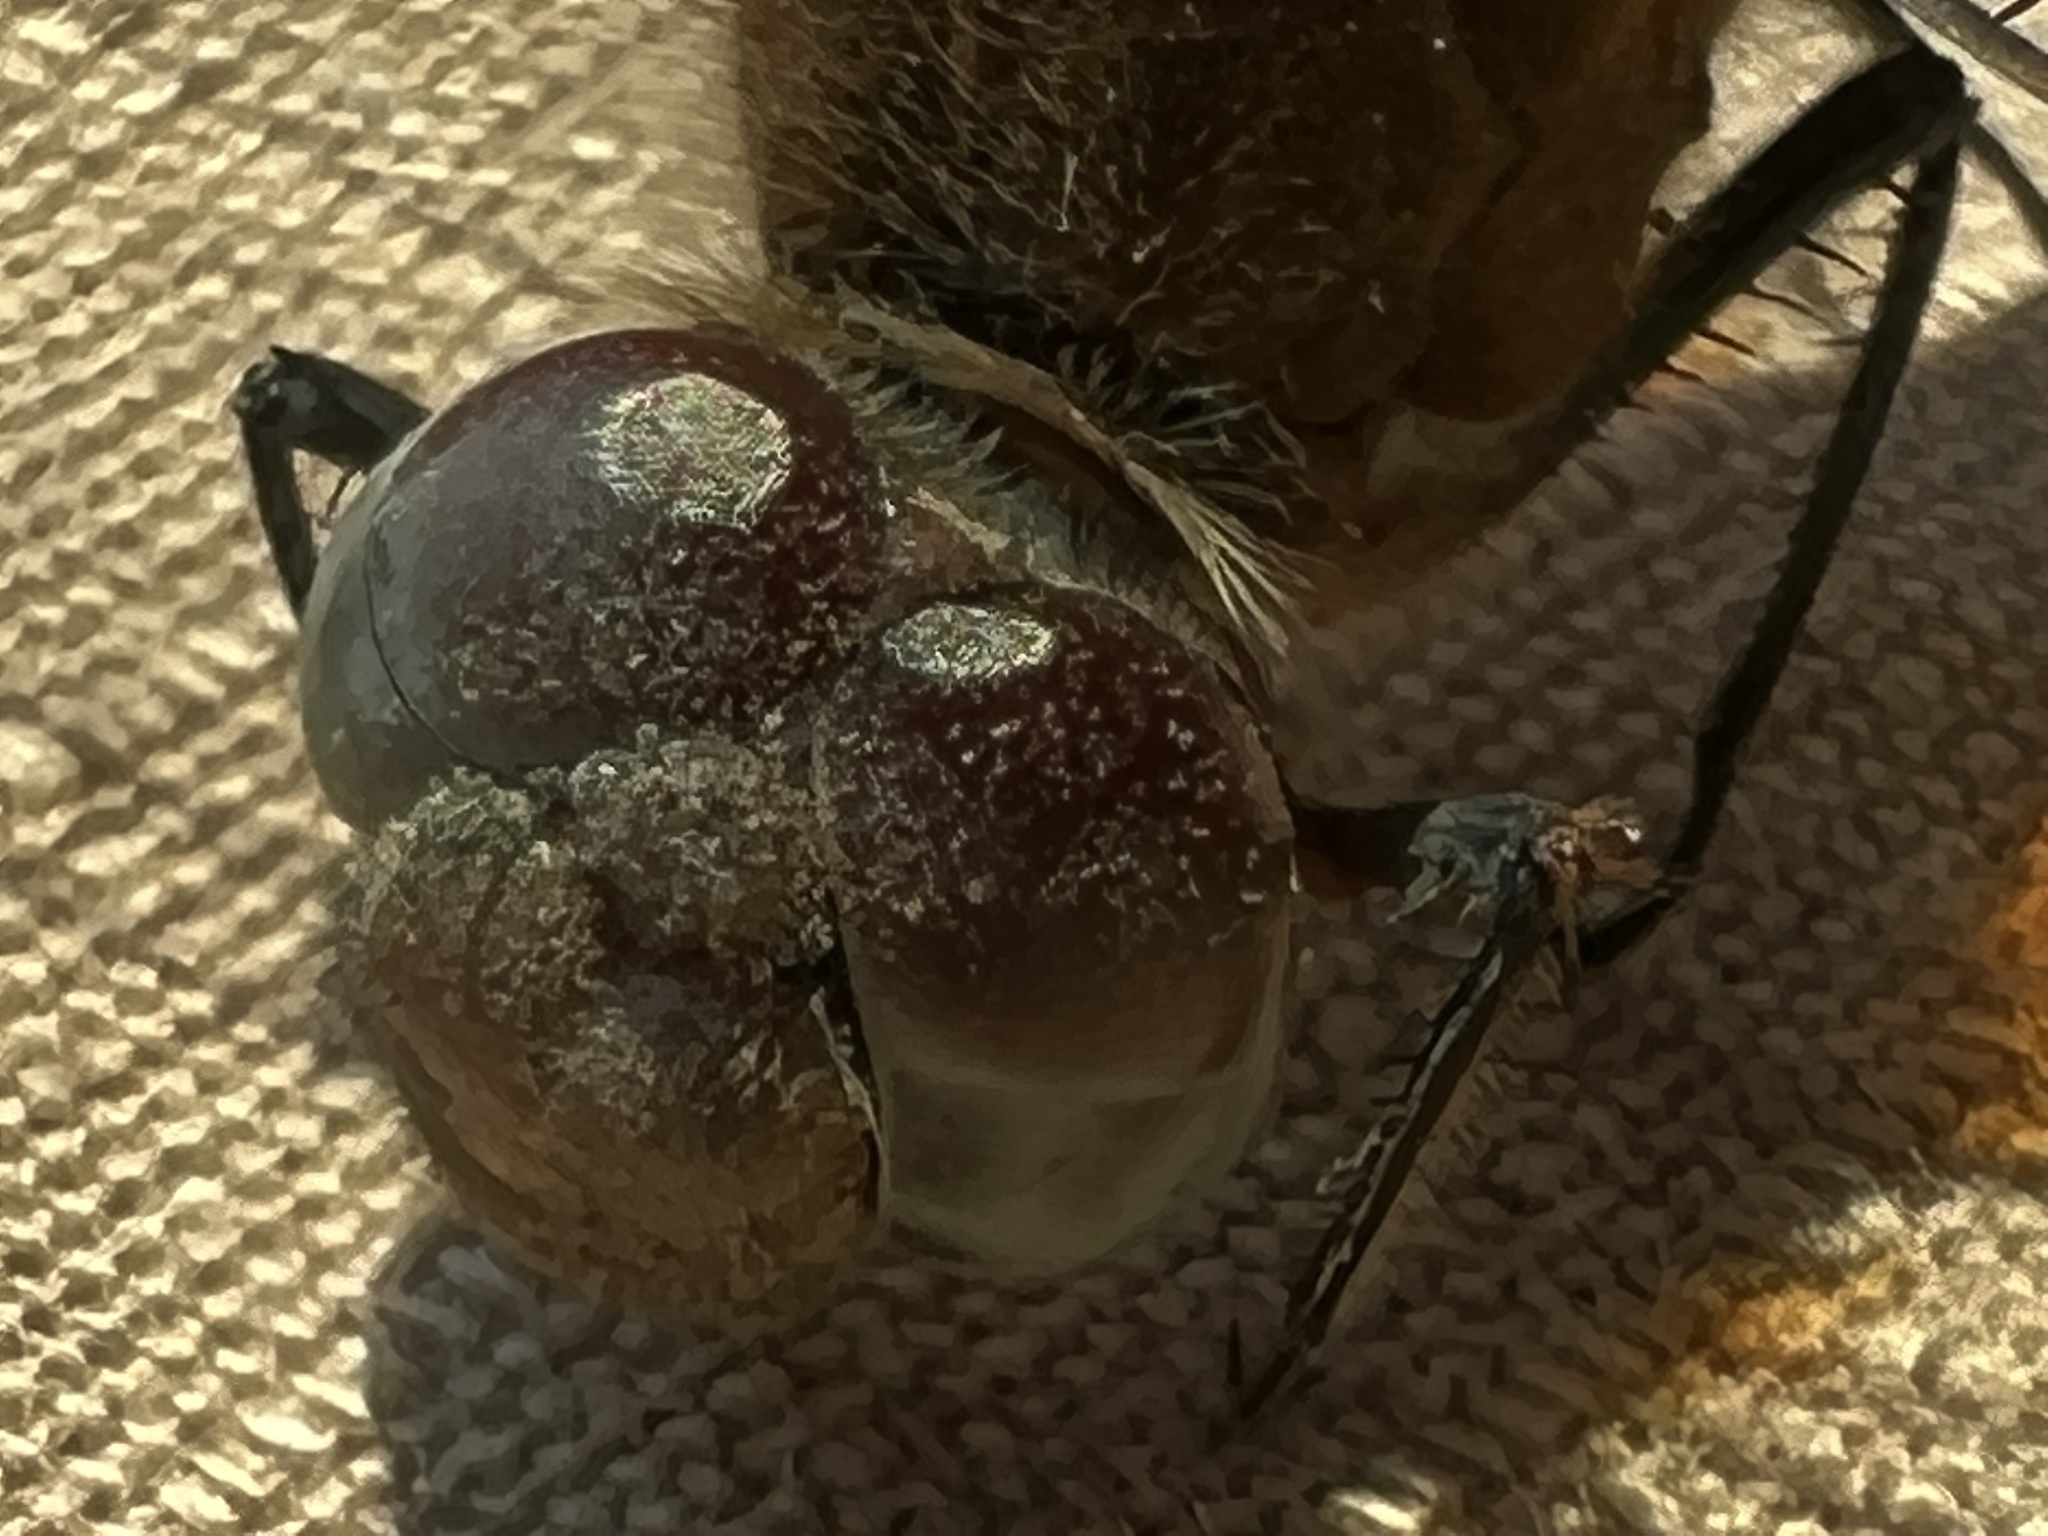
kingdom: Animalia
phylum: Arthropoda
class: Insecta
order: Odonata
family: Libellulidae
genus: Brachymesia
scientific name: Brachymesia furcata
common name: Red-taled pennant
